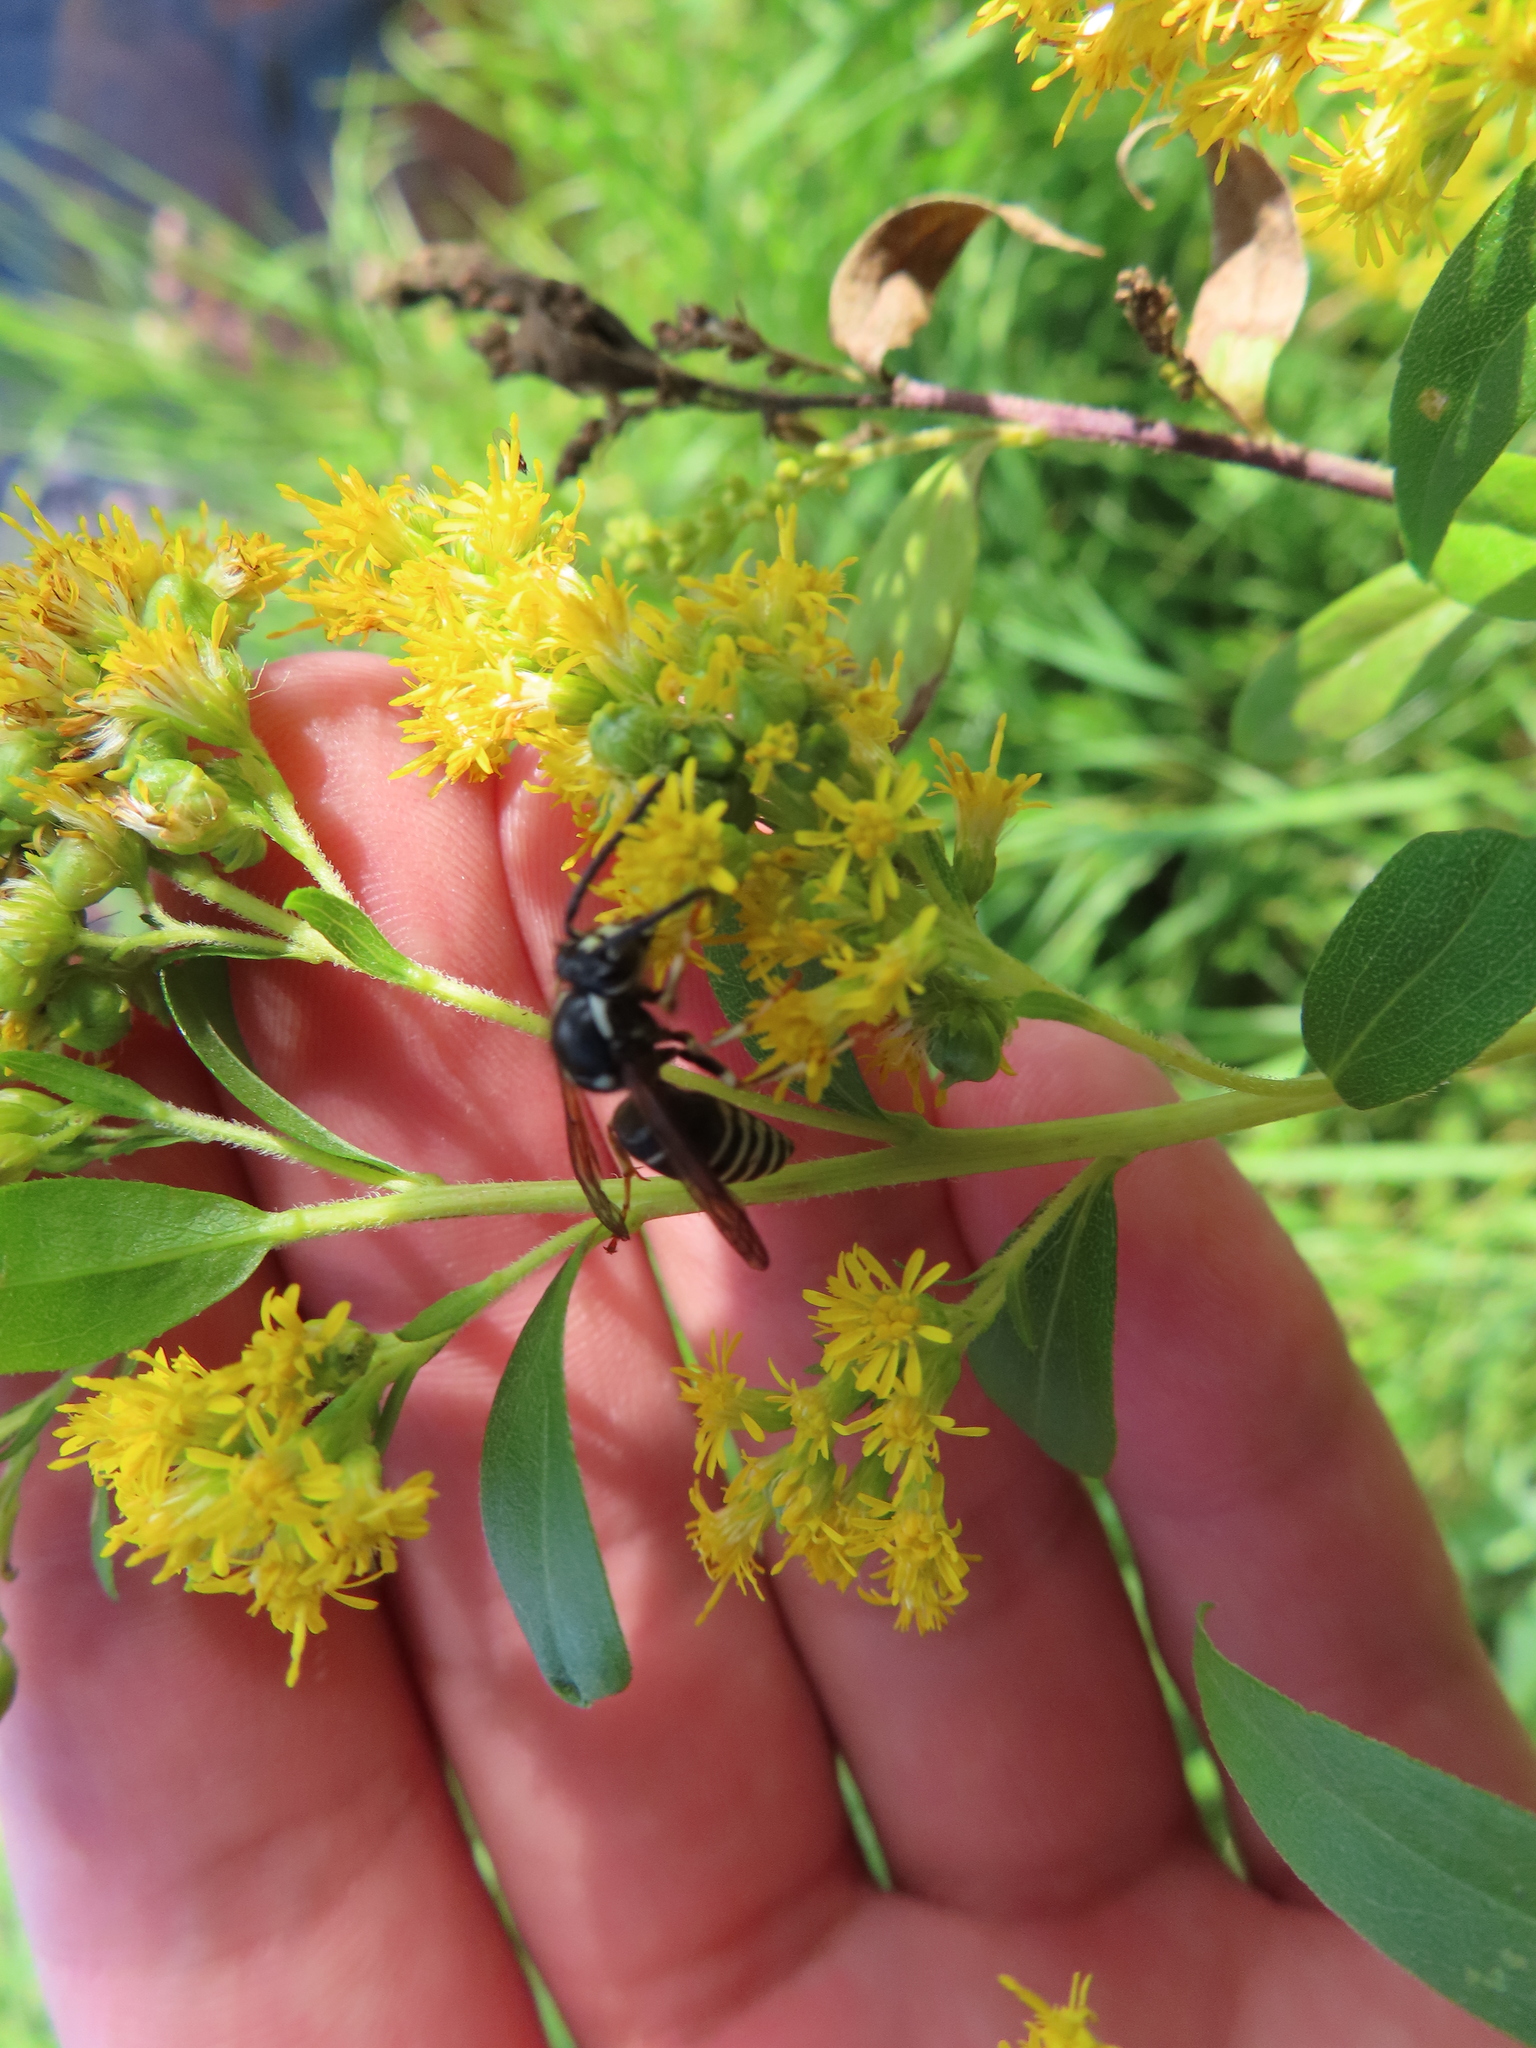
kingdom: Animalia
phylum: Arthropoda
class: Insecta
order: Hymenoptera
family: Vespidae
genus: Dolichovespula
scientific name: Dolichovespula adulterina
